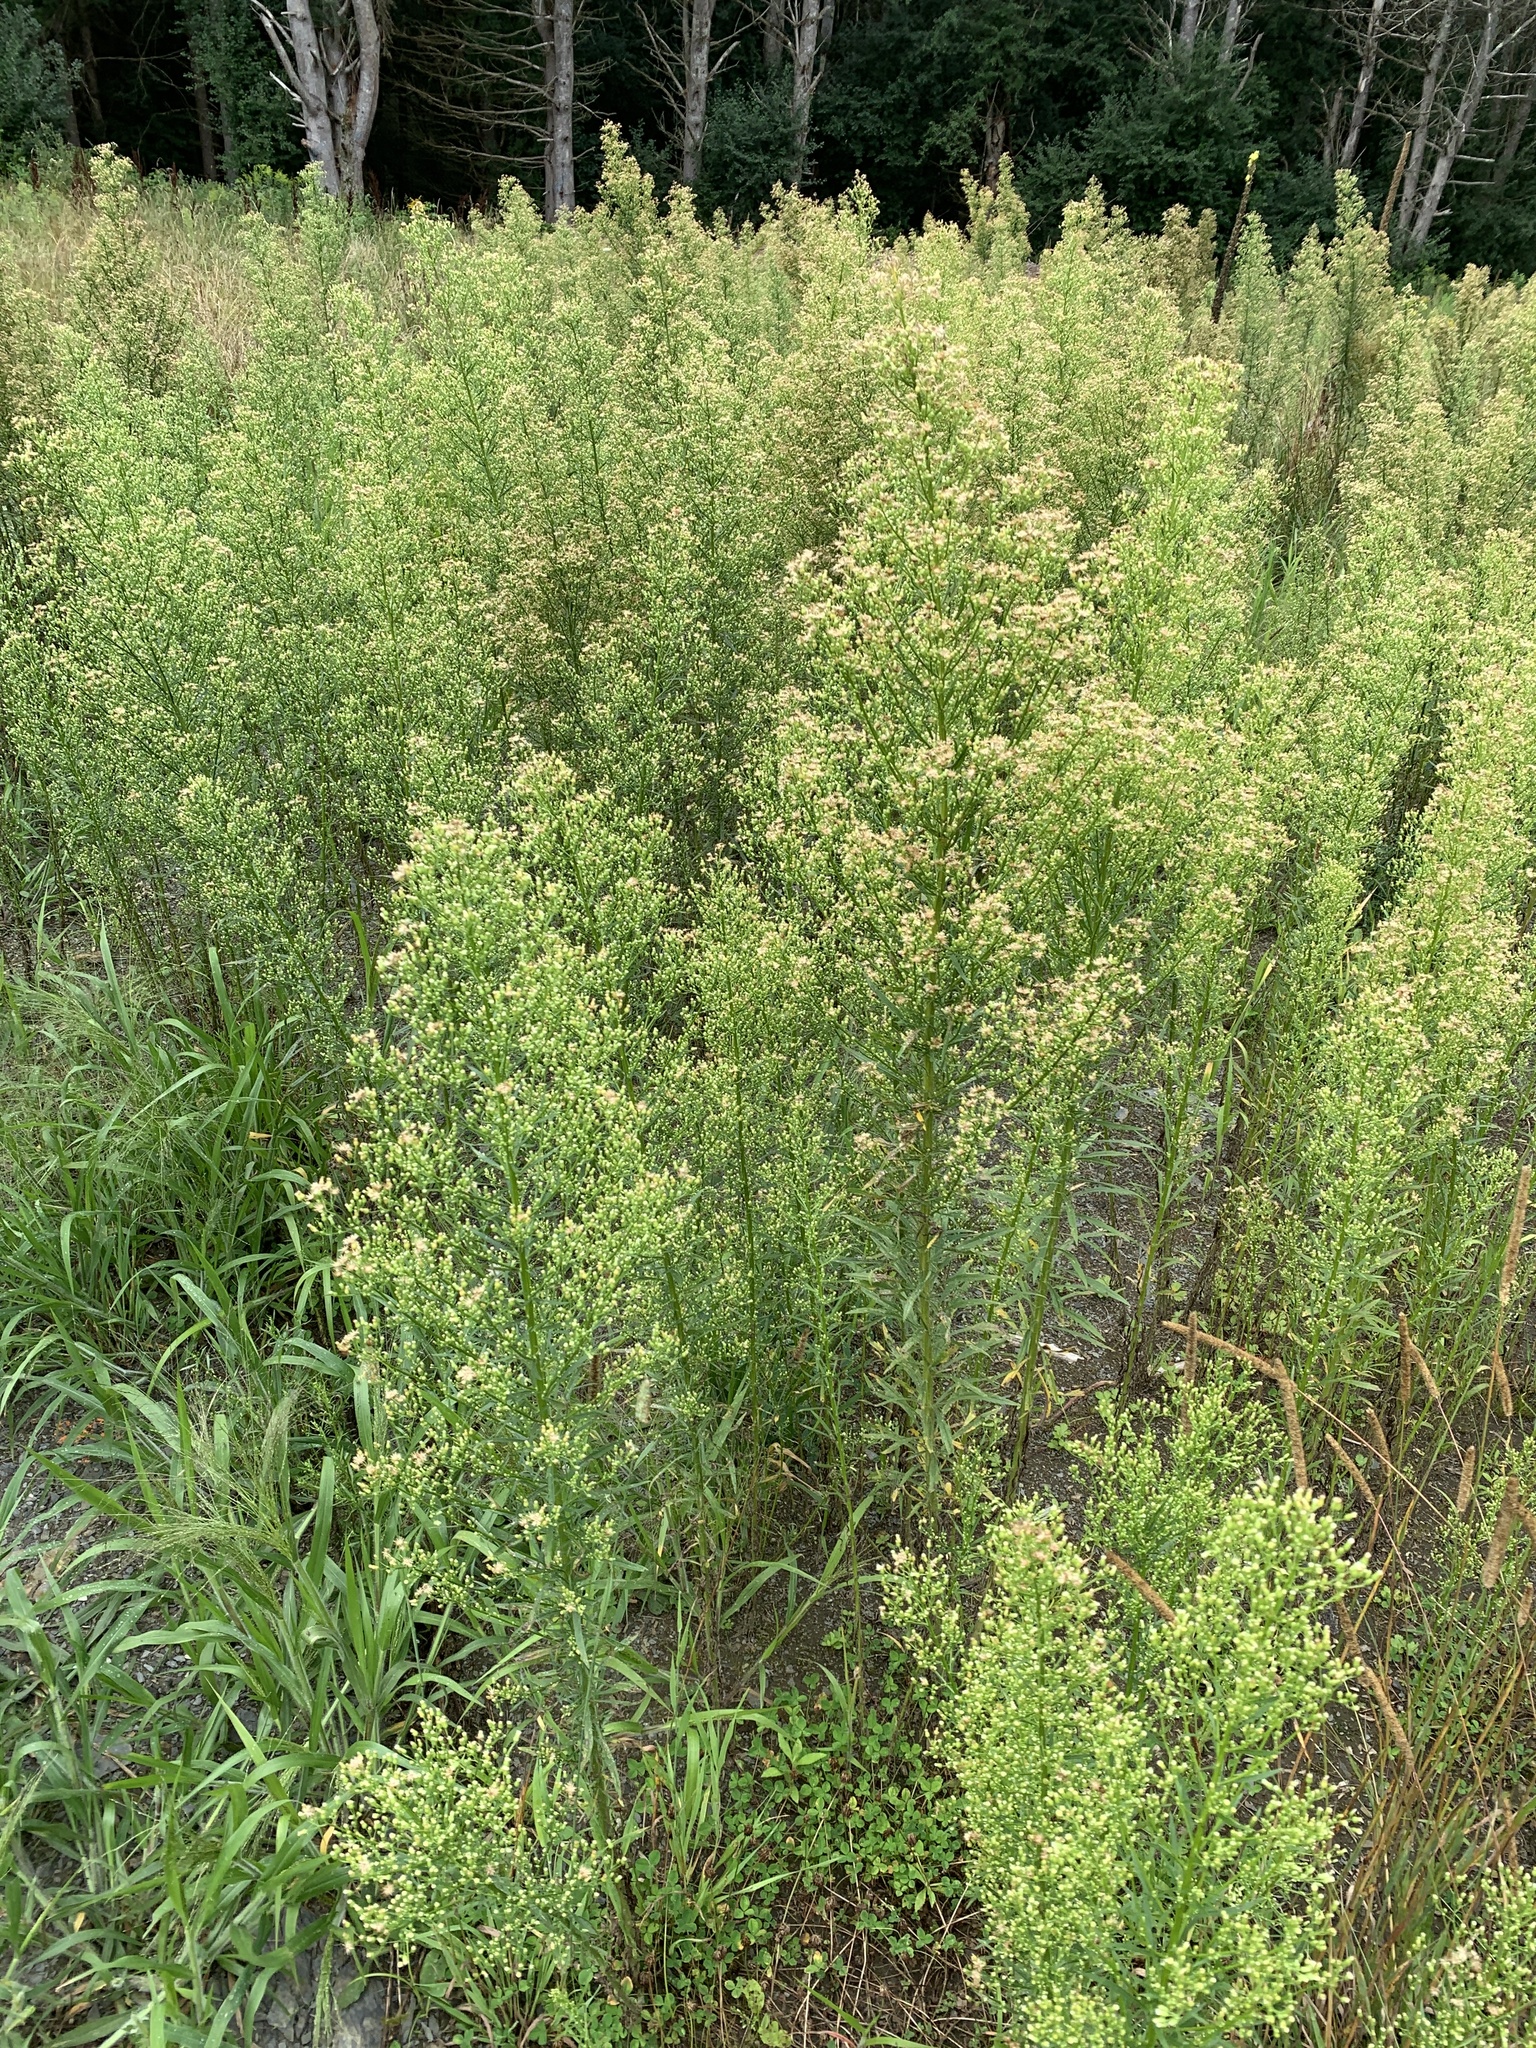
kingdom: Plantae
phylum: Tracheophyta
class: Magnoliopsida
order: Asterales
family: Asteraceae
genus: Erigeron
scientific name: Erigeron canadensis
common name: Canadian fleabane
